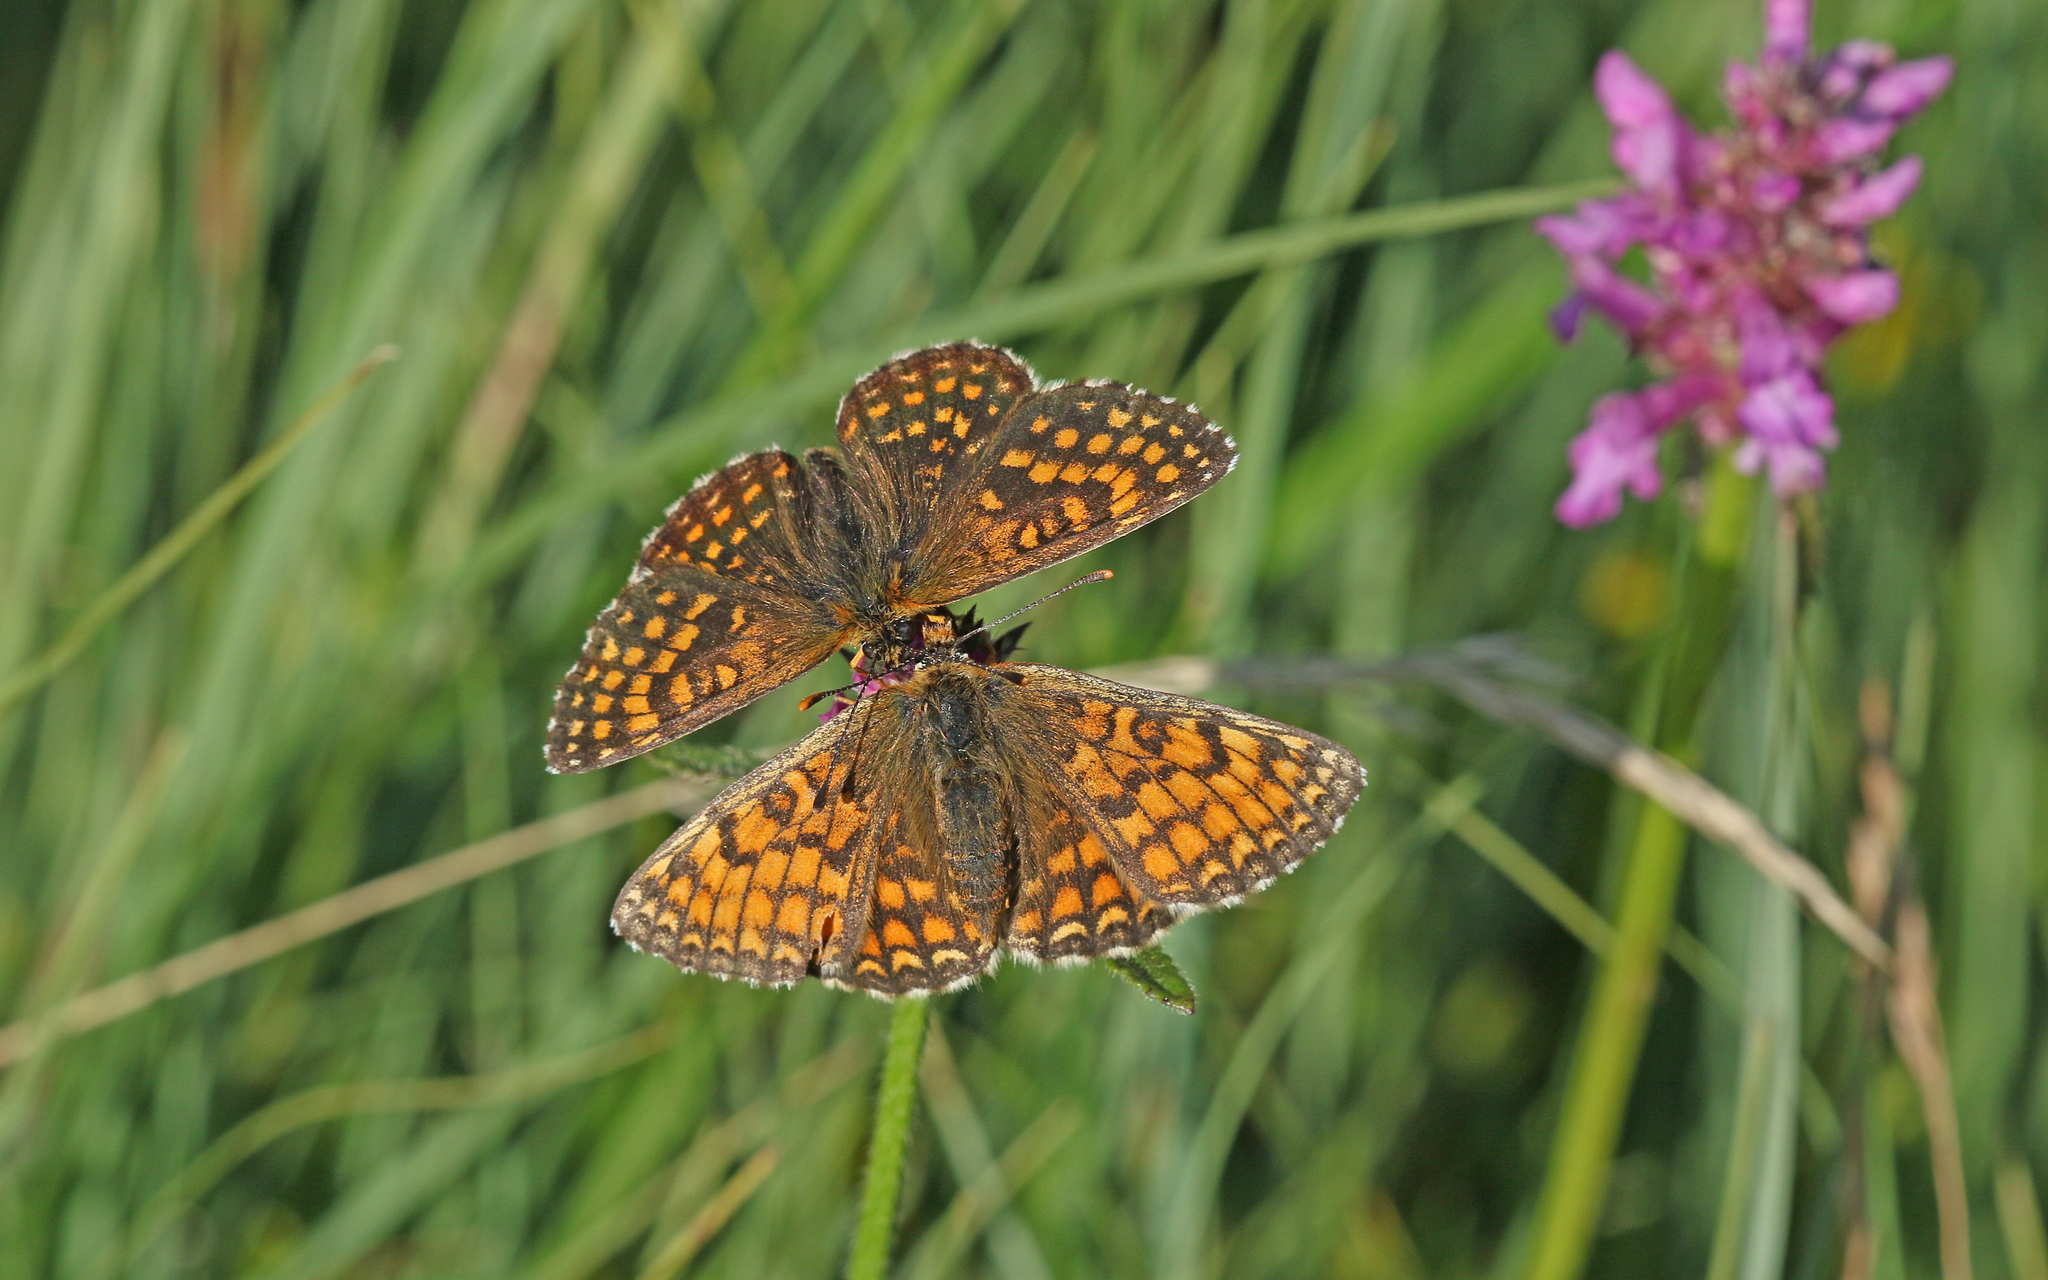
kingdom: Animalia
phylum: Arthropoda
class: Insecta
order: Lepidoptera
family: Nymphalidae
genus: Mellicta
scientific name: Mellicta parthenoides
